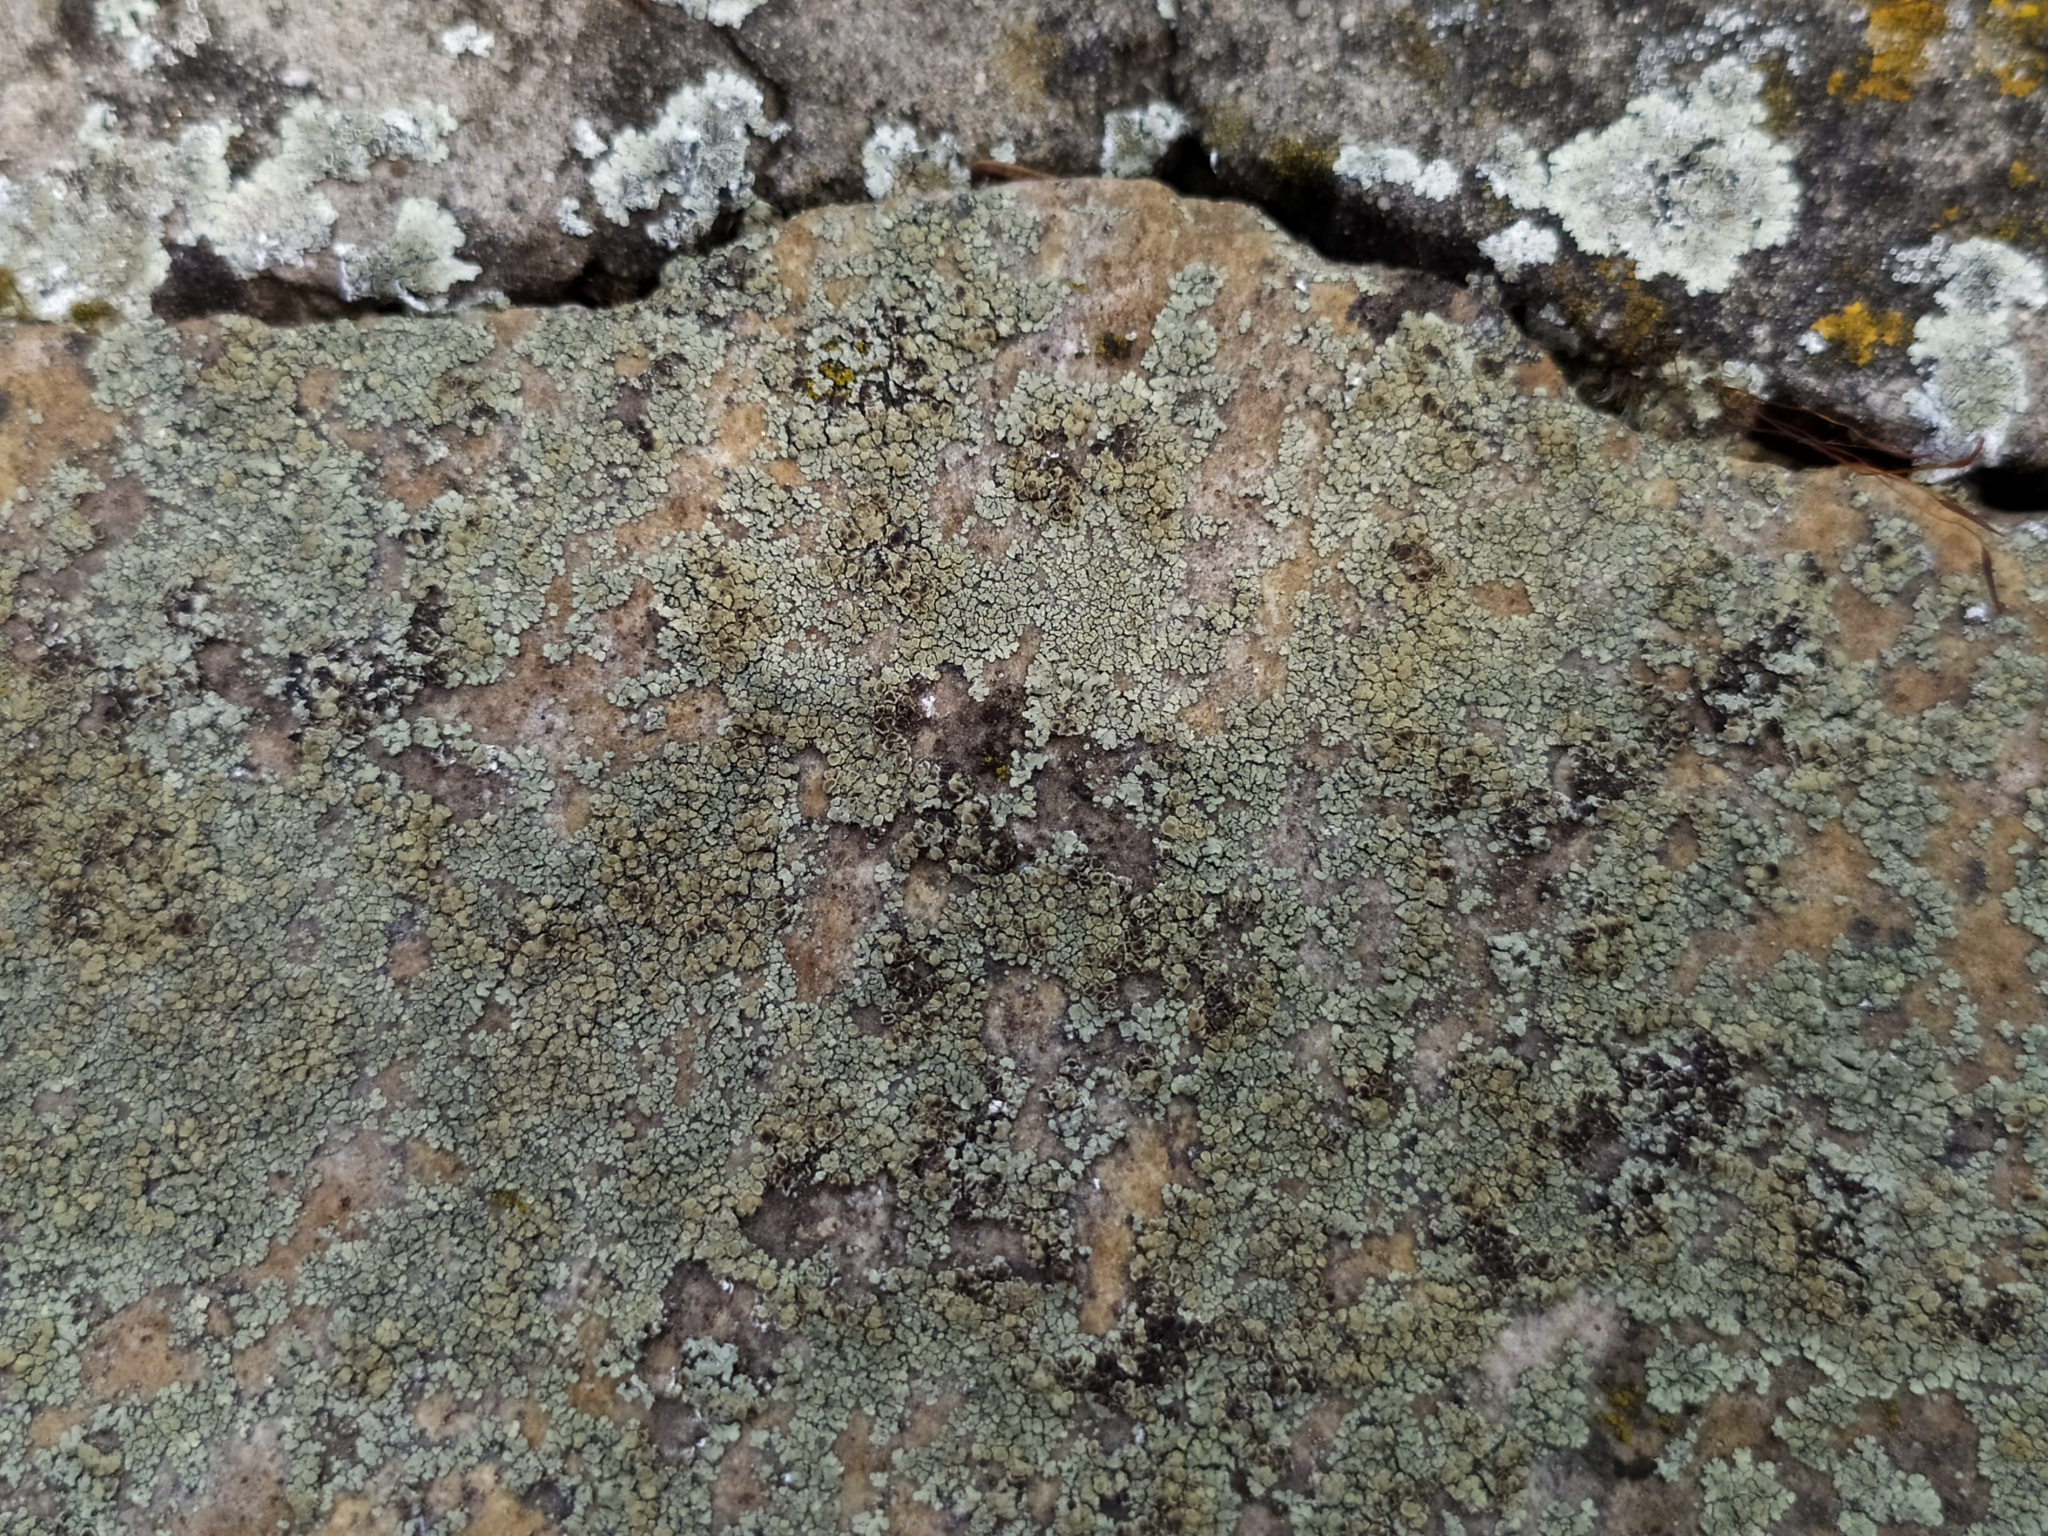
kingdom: Fungi
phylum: Ascomycota
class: Lecanoromycetes
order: Lecanorales
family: Lecanoraceae
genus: Protoparmeliopsis
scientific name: Protoparmeliopsis muralis
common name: Stonewall rim lichen
